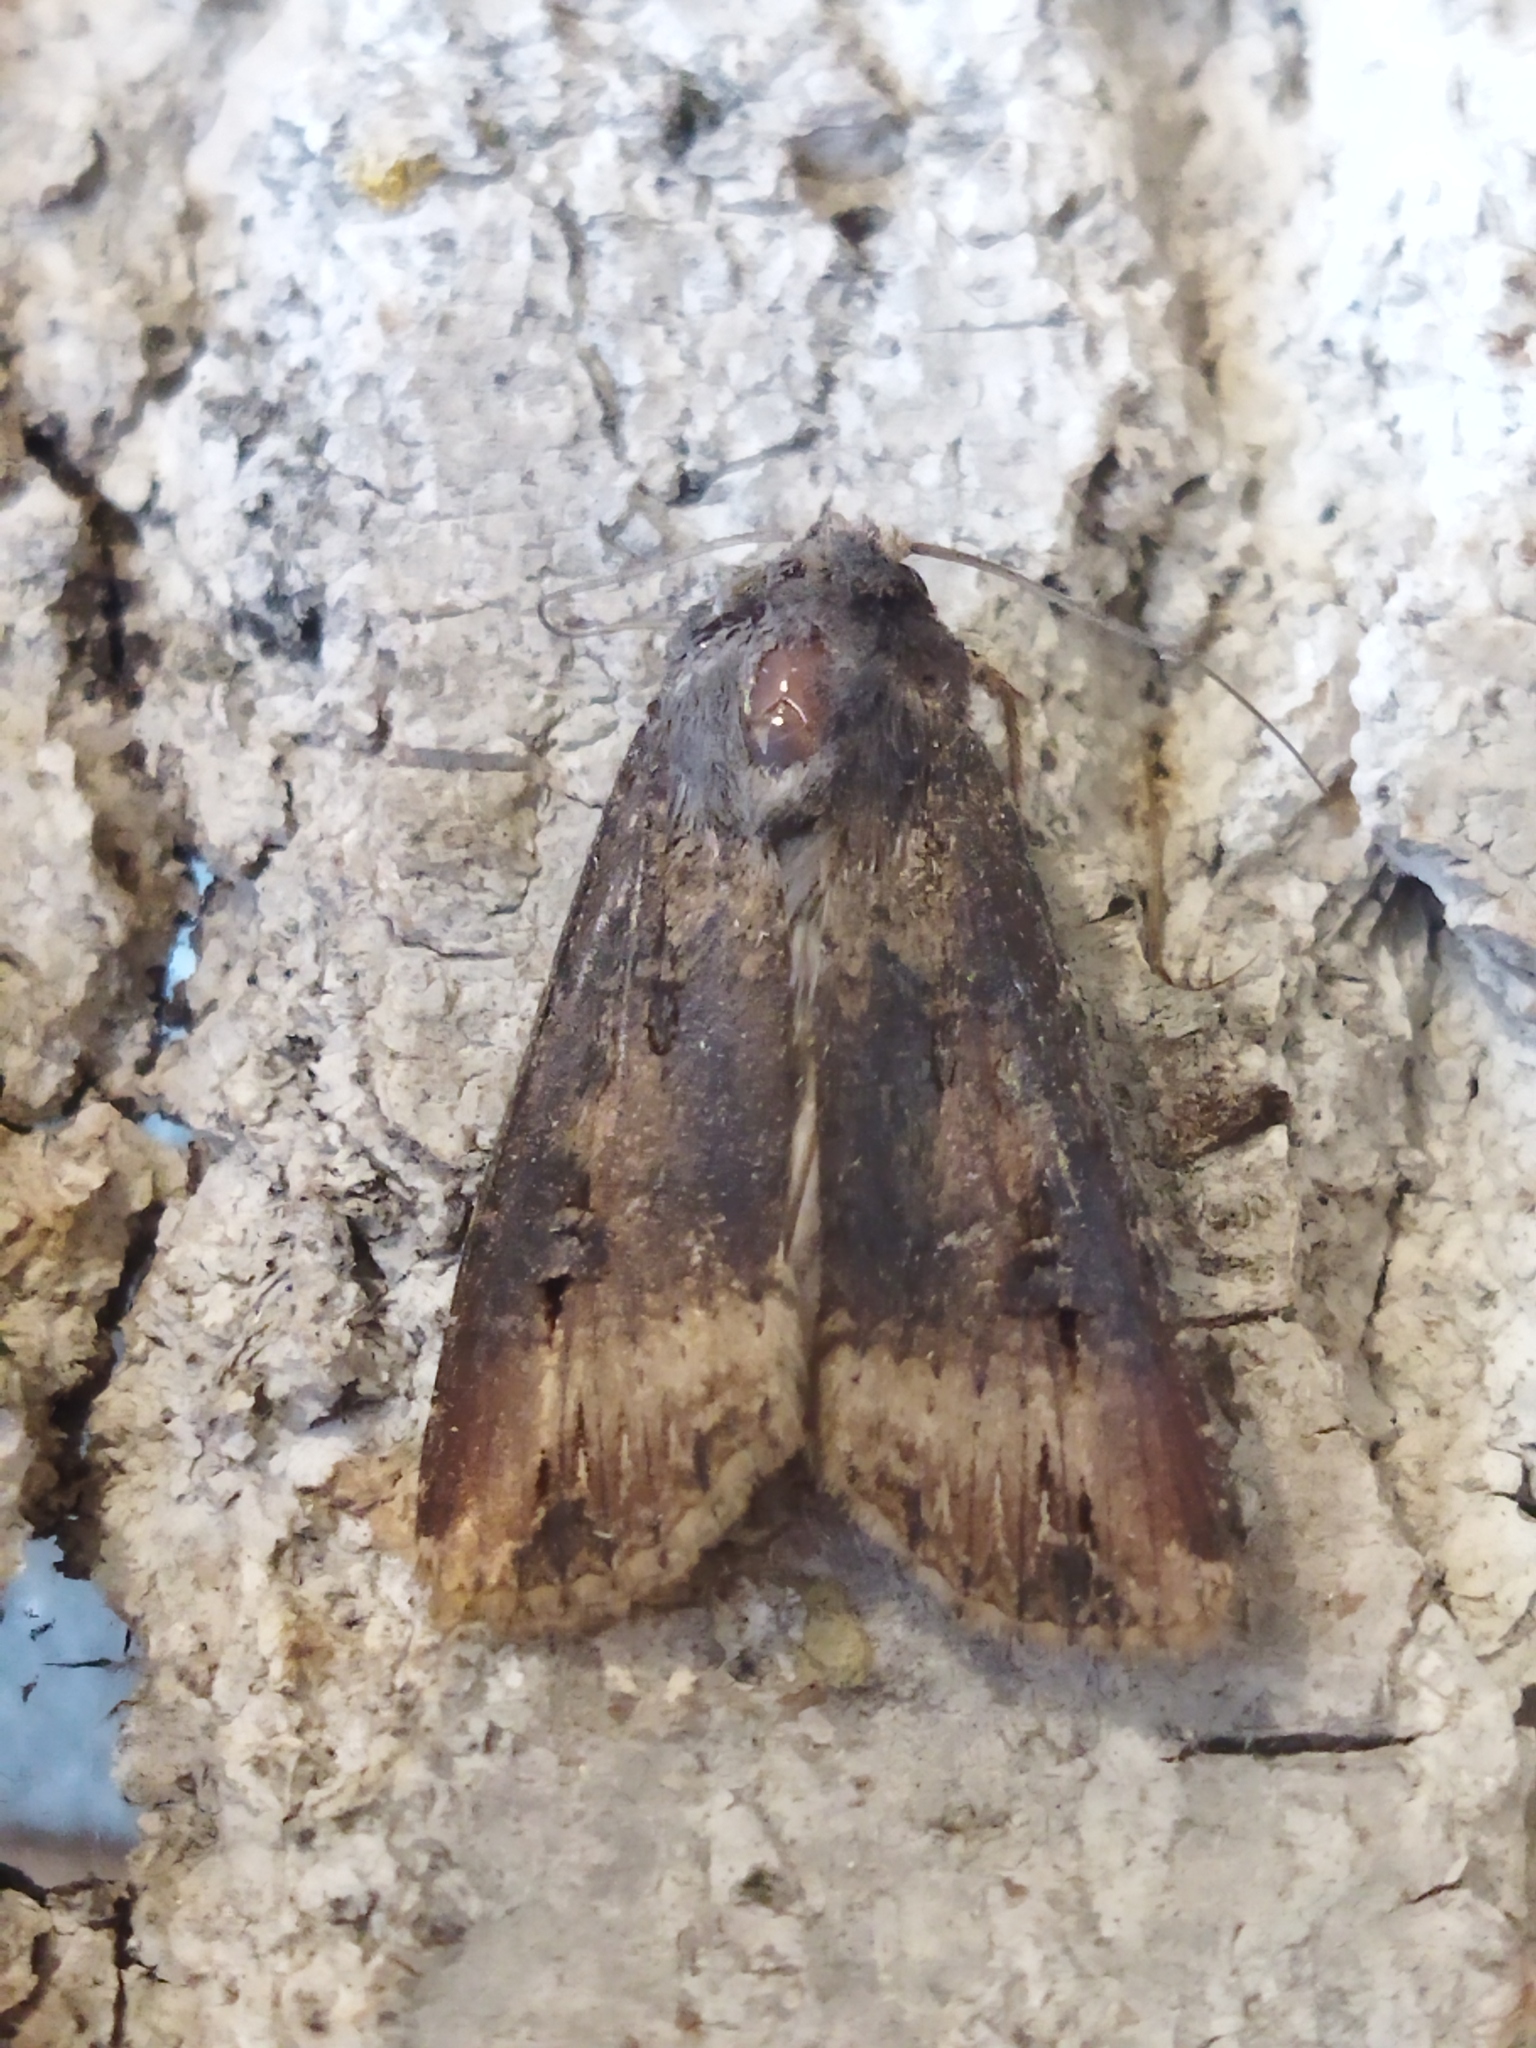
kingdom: Animalia
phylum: Arthropoda
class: Insecta
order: Lepidoptera
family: Noctuidae
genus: Agrotis
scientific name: Agrotis ipsilon
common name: Dark sword-grass
